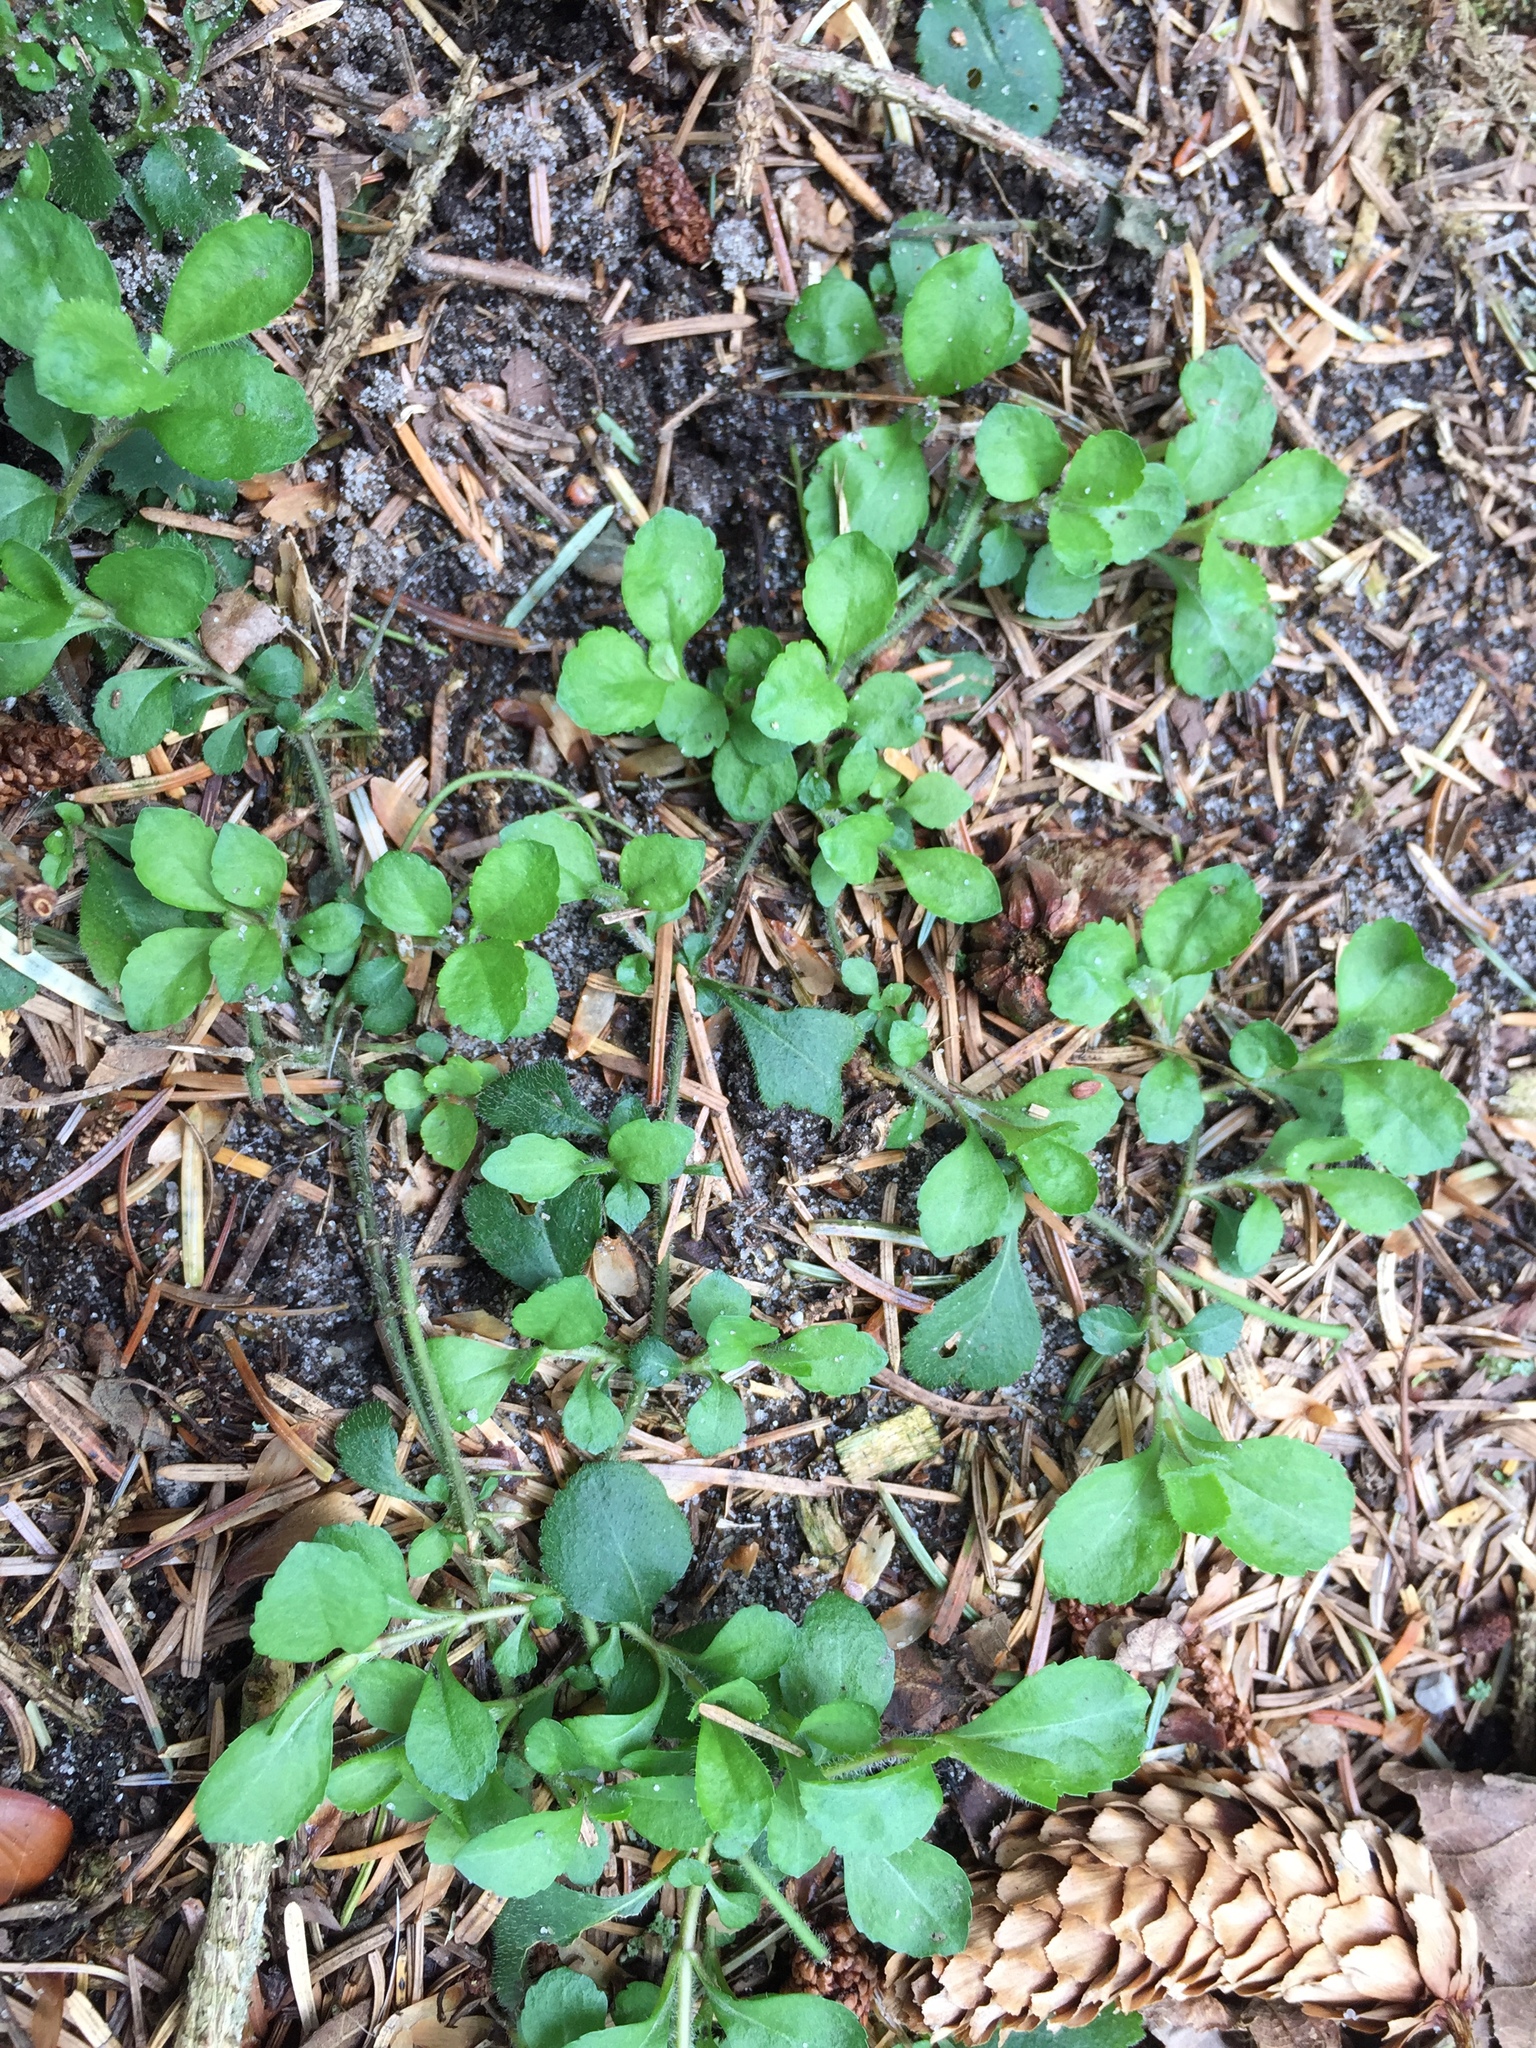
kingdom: Plantae
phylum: Tracheophyta
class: Magnoliopsida
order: Lamiales
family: Plantaginaceae
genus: Veronica
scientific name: Veronica officinalis
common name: Common speedwell
